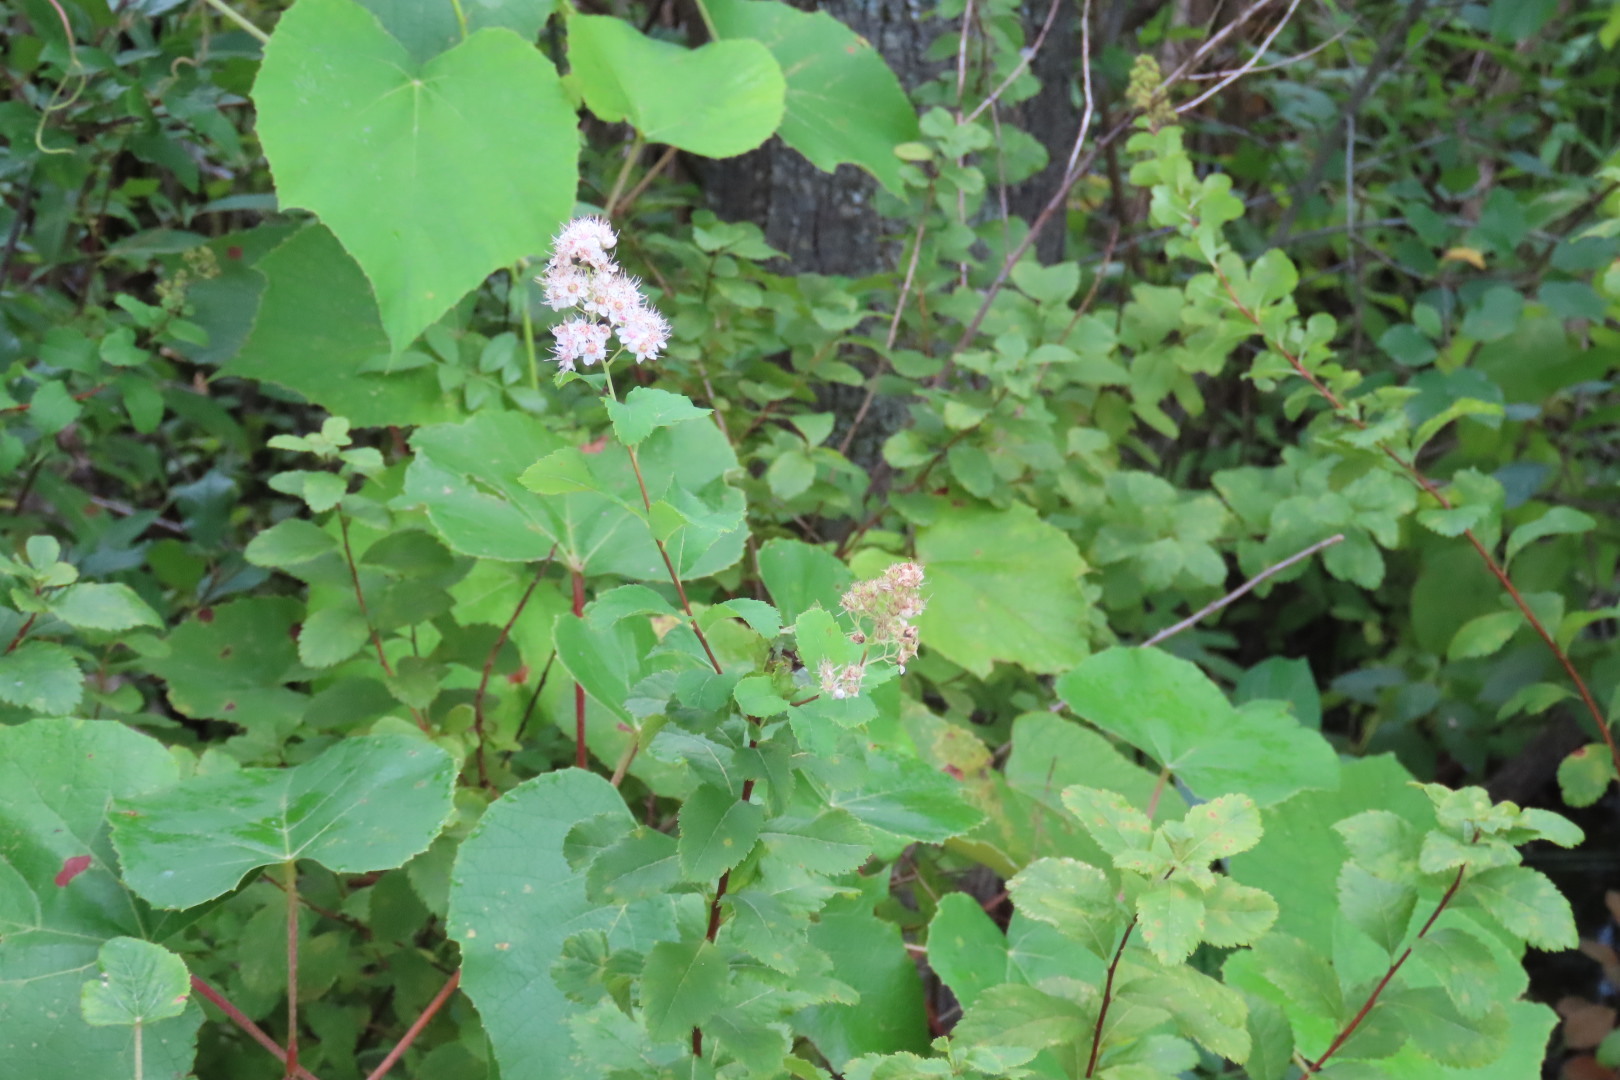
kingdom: Plantae
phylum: Tracheophyta
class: Magnoliopsida
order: Rosales
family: Rosaceae
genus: Spiraea
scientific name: Spiraea alba
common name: Pale bridewort
